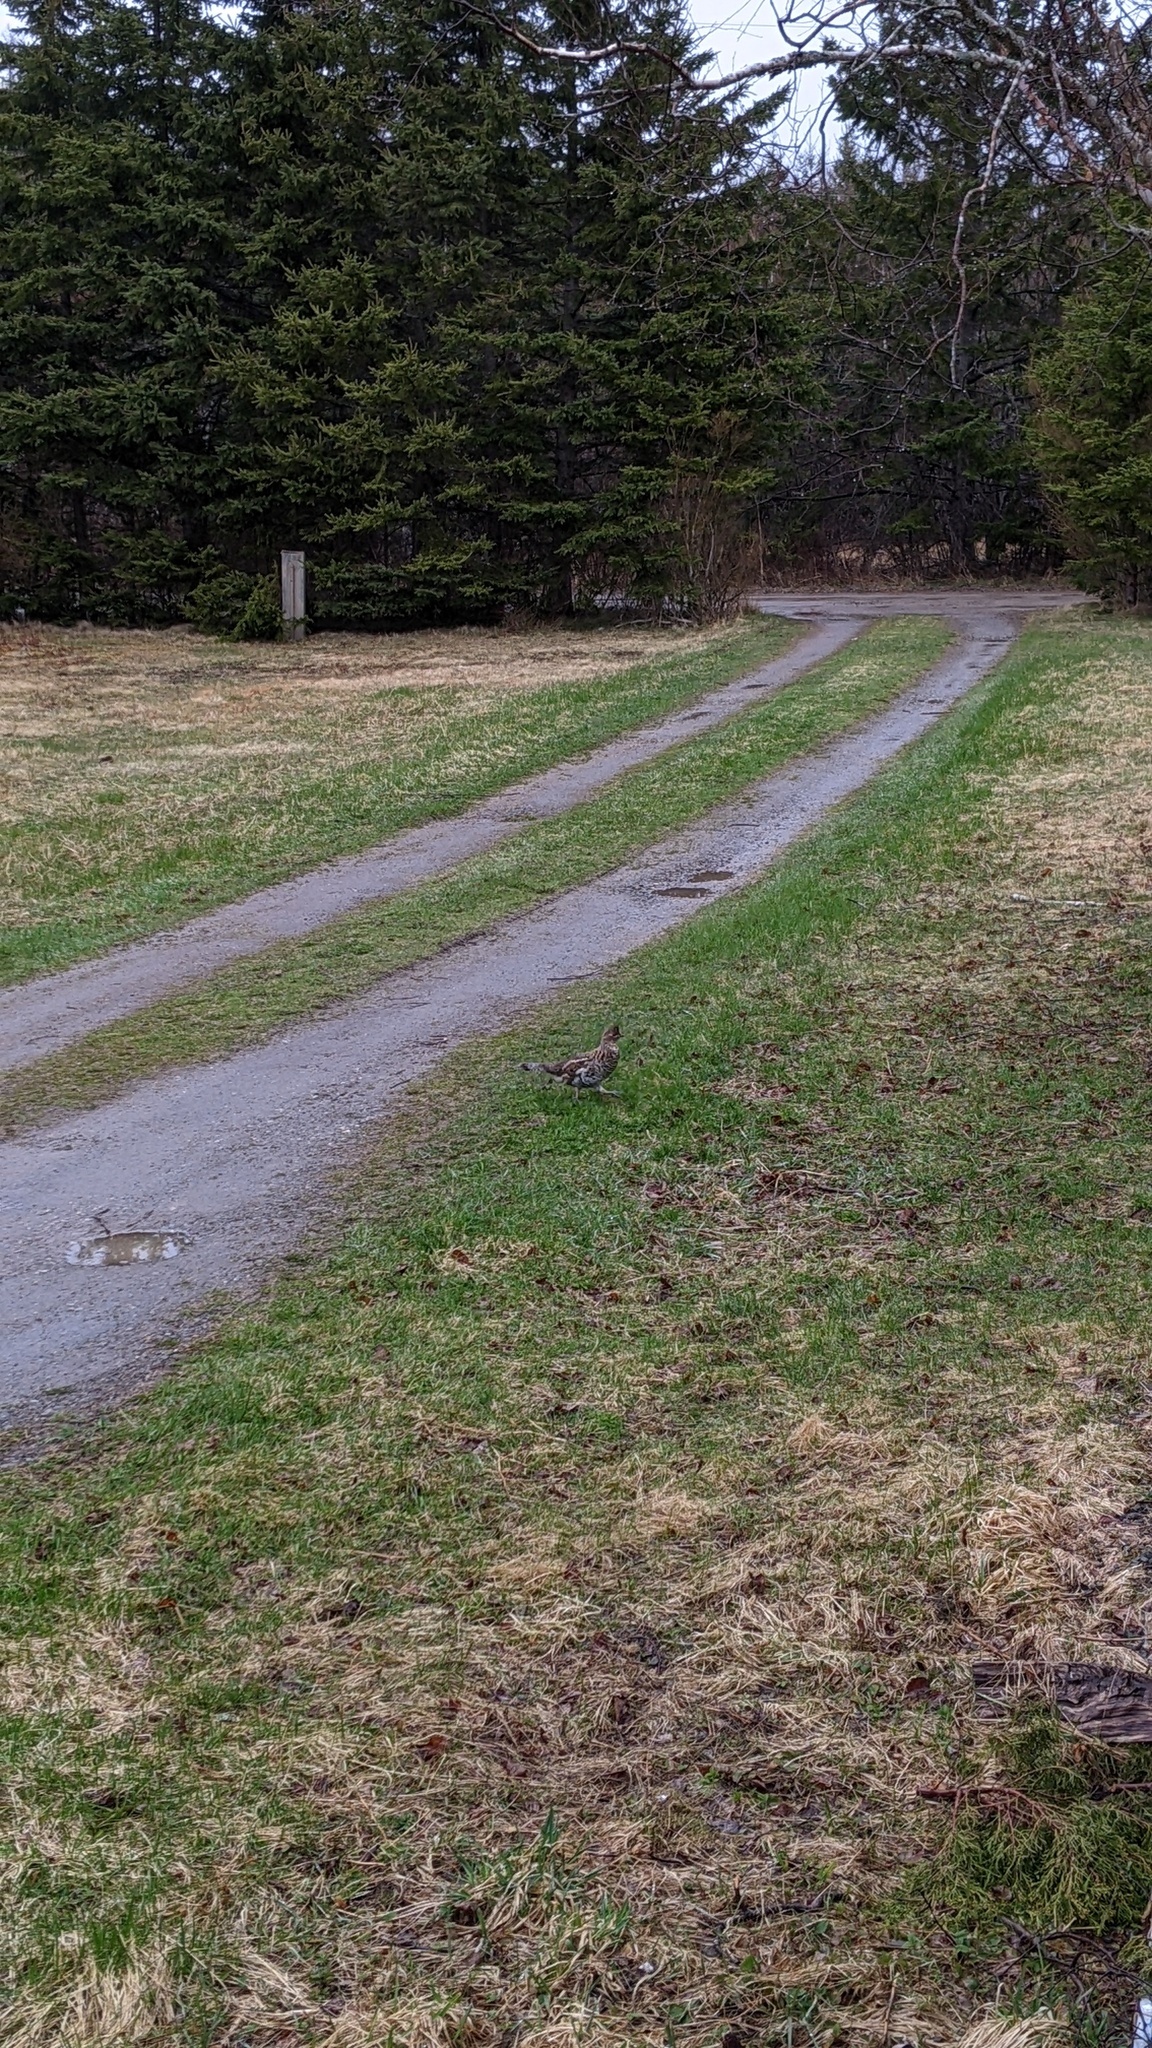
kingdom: Animalia
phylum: Chordata
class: Aves
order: Galliformes
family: Phasianidae
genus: Bonasa
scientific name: Bonasa umbellus
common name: Ruffed grouse
